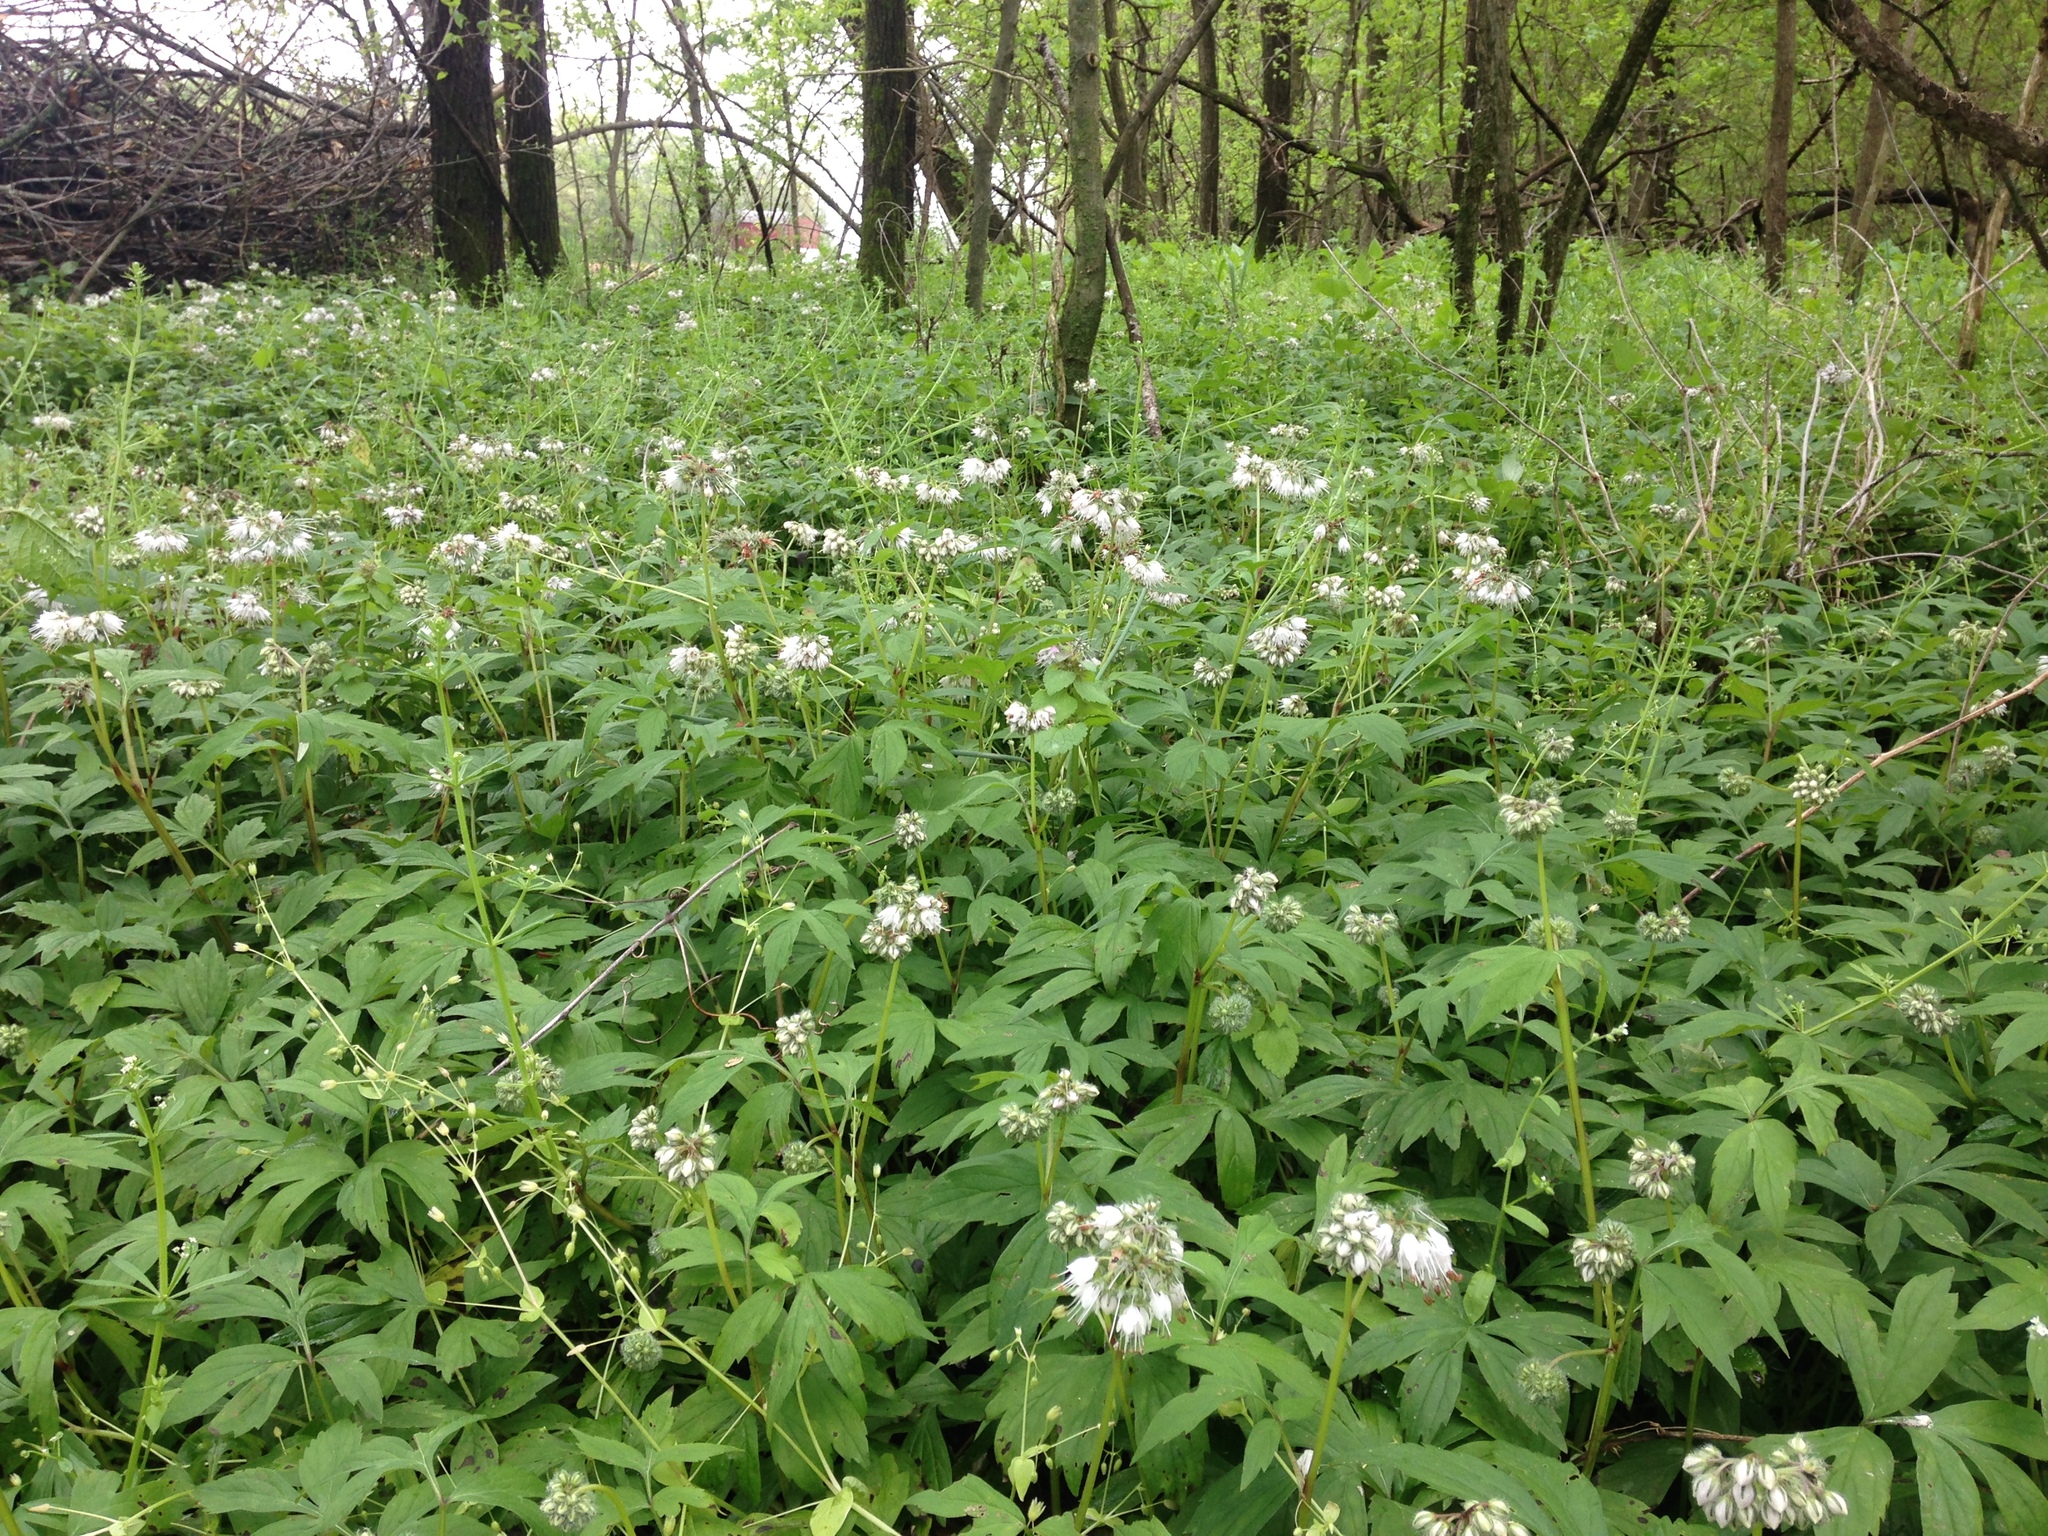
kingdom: Plantae
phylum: Tracheophyta
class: Magnoliopsida
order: Boraginales
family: Hydrophyllaceae
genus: Hydrophyllum
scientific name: Hydrophyllum virginianum
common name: Virginia waterleaf
